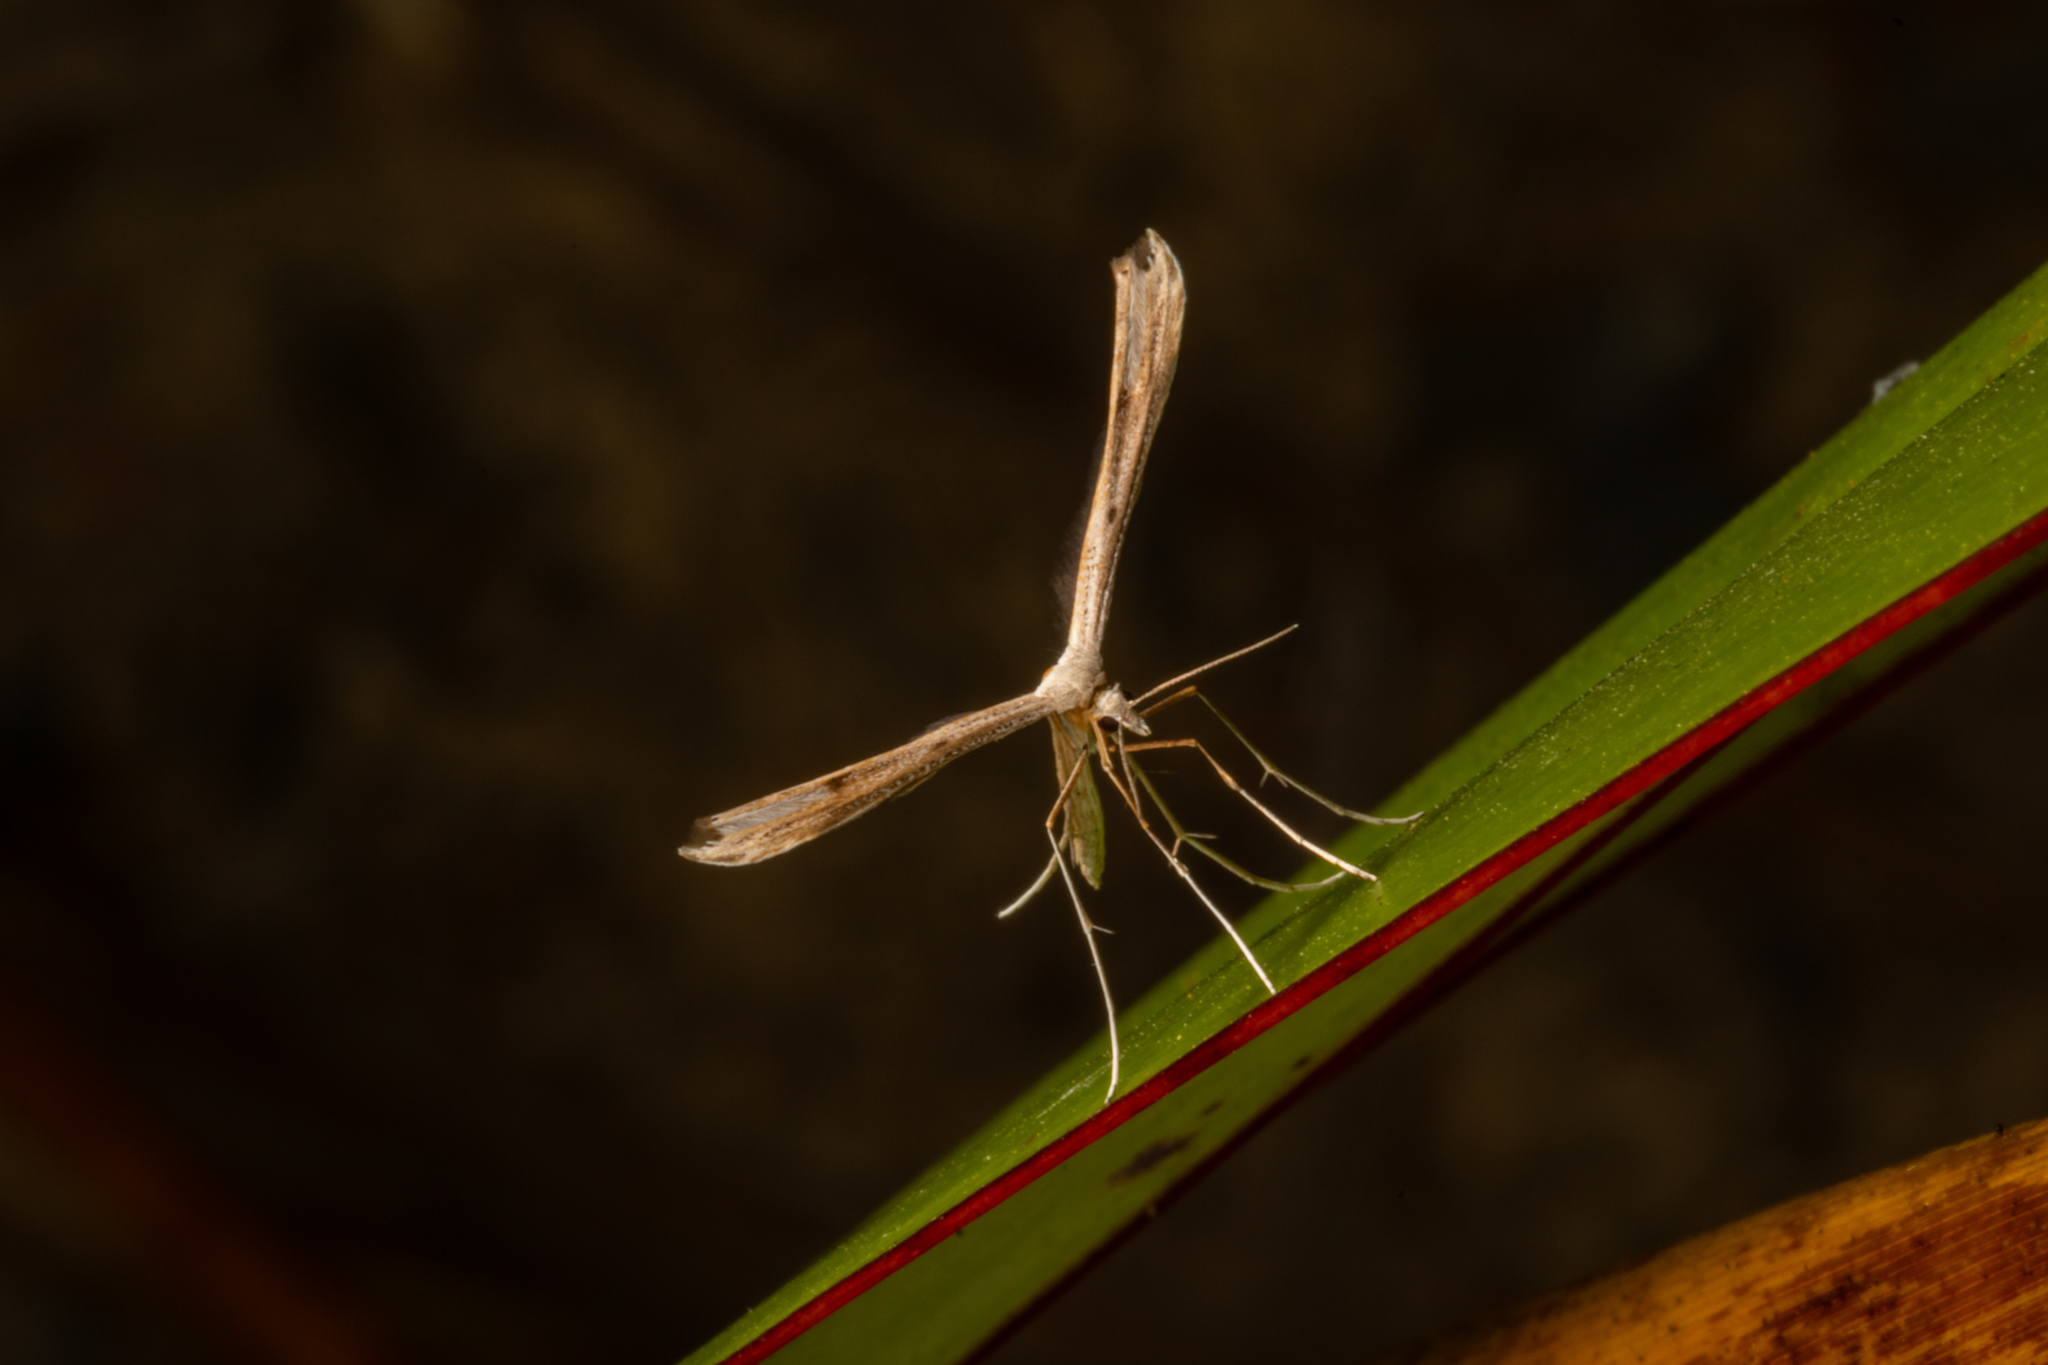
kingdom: Animalia
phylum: Arthropoda
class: Insecta
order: Lepidoptera
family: Pterophoridae
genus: Stenoptilia
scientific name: Stenoptilia zophodactylus
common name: Dowdy plume
